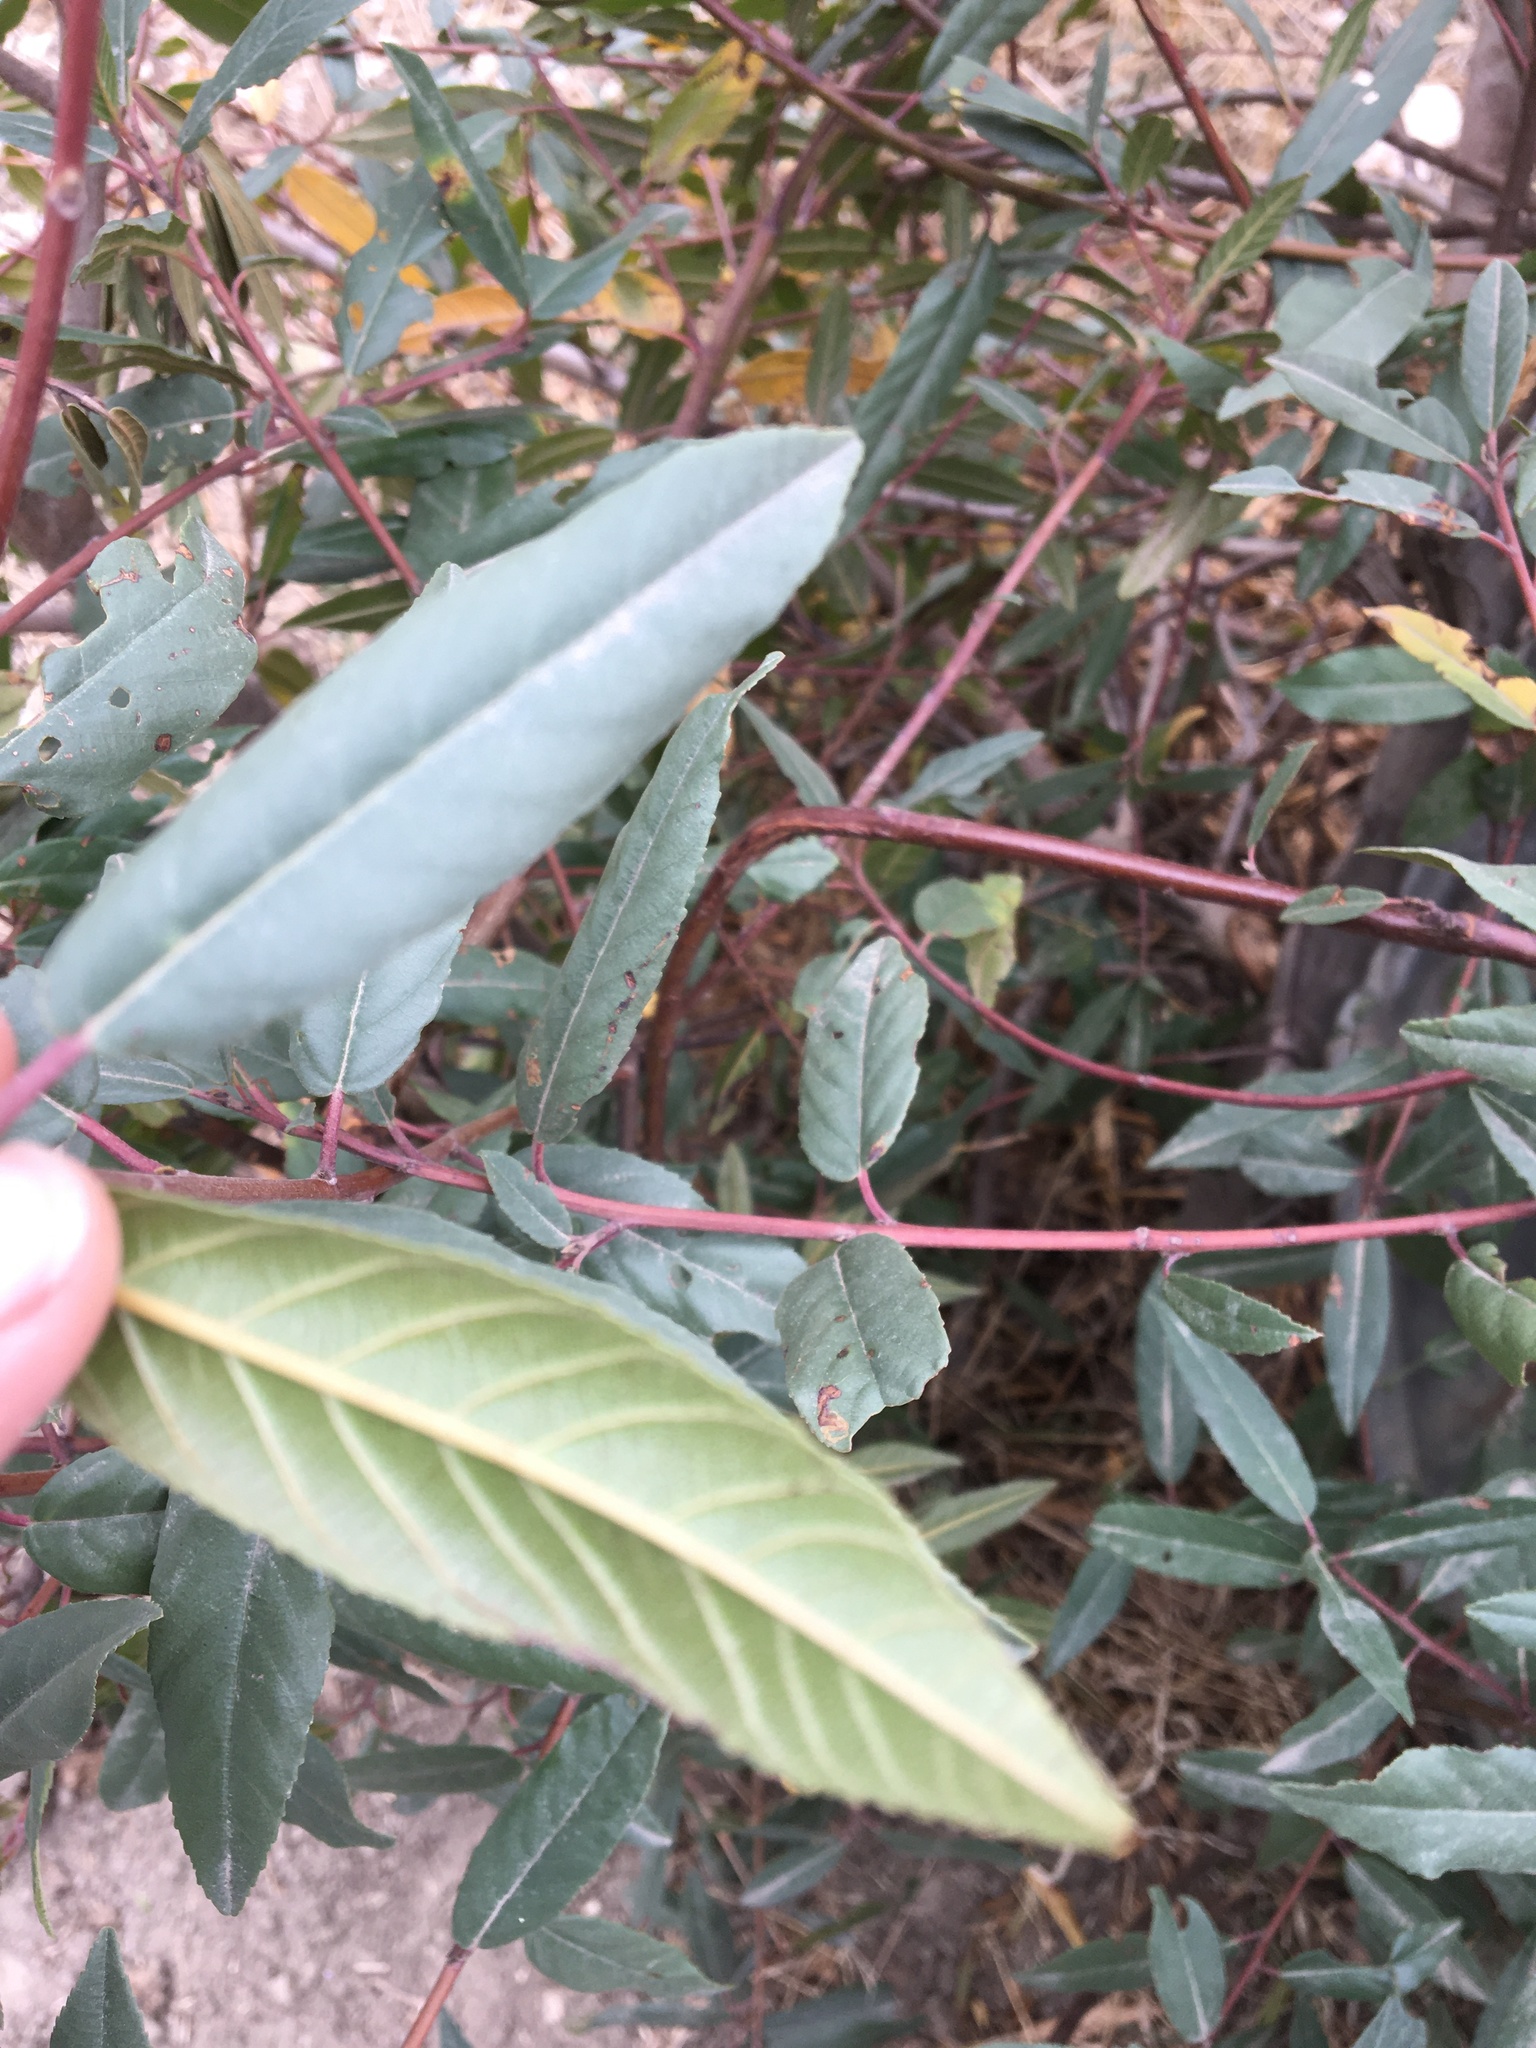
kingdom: Plantae
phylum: Tracheophyta
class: Magnoliopsida
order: Rosales
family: Rhamnaceae
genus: Frangula
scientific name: Frangula californica
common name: California buckthorn
